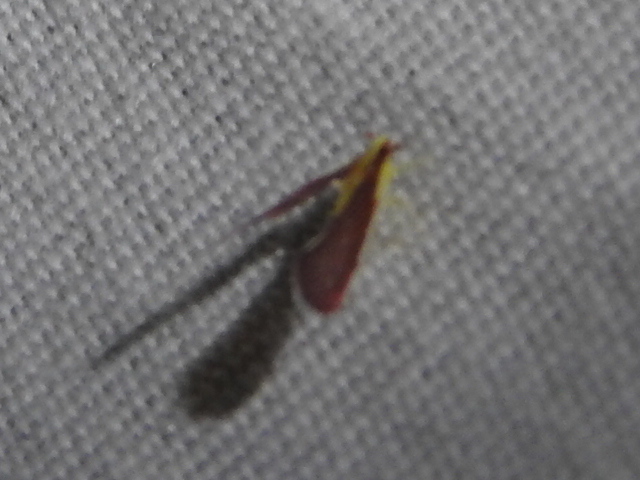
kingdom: Animalia
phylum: Arthropoda
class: Insecta
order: Hemiptera
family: Derbidae
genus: Anotia
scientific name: Anotia firebugia
